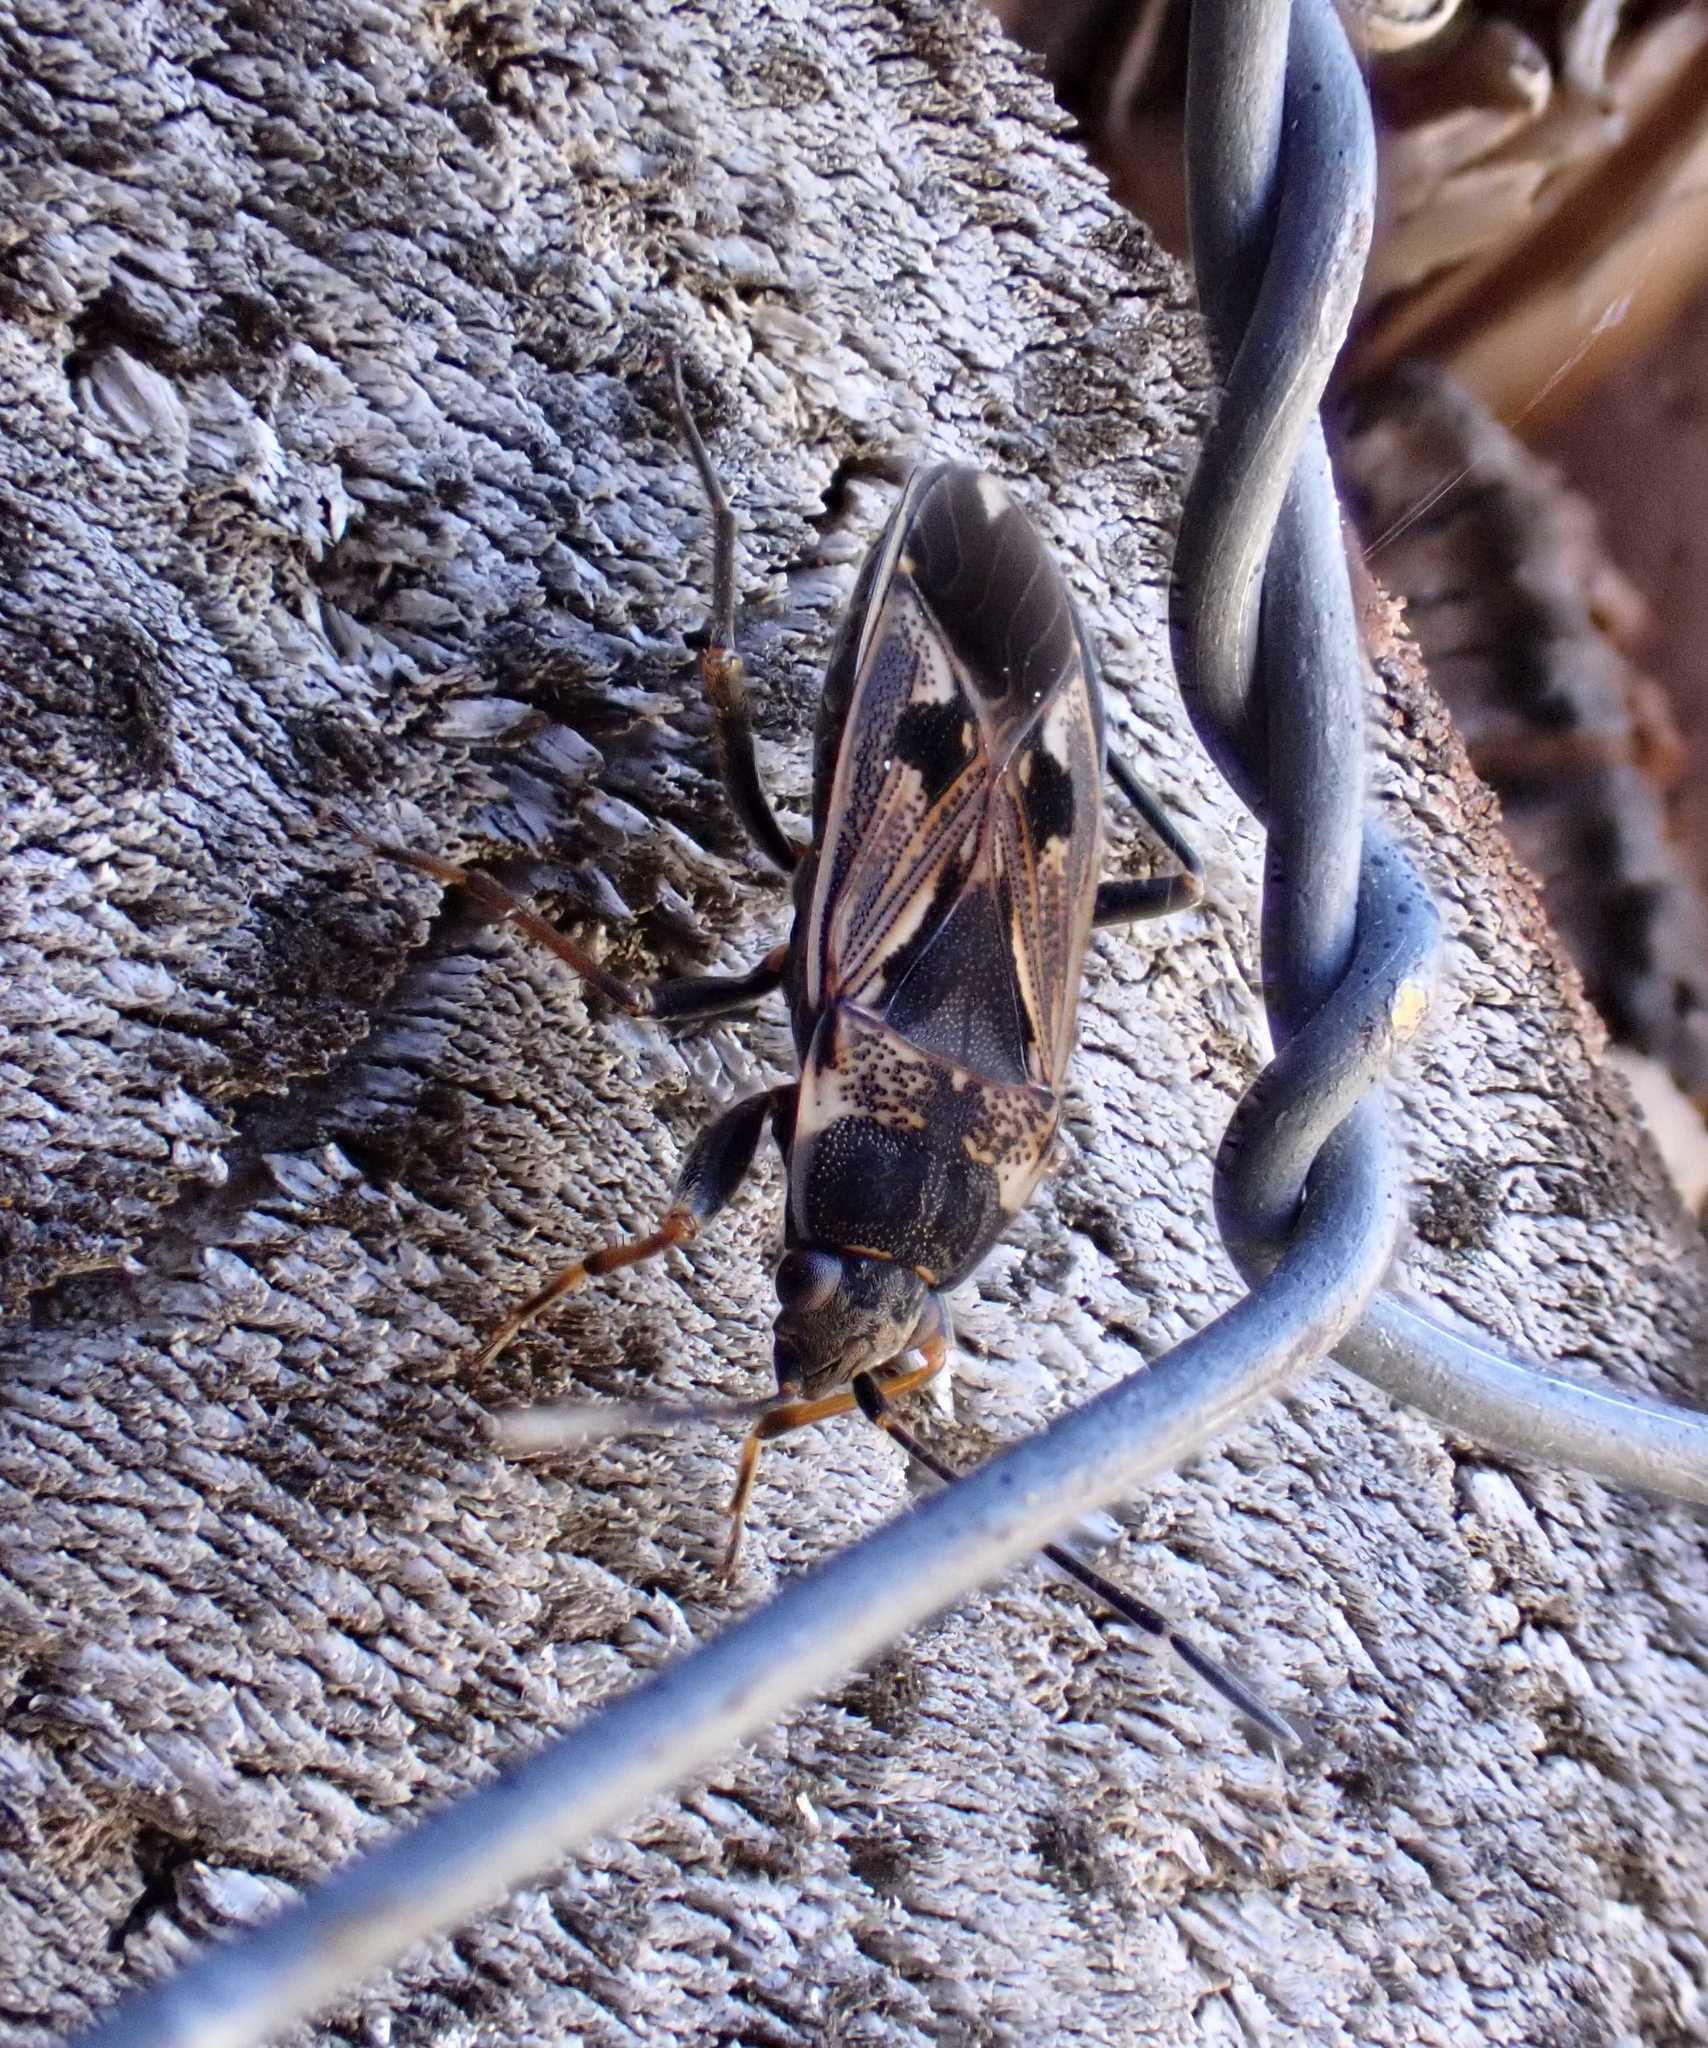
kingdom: Animalia
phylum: Arthropoda
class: Insecta
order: Hemiptera
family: Rhyparochromidae
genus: Rhyparochromus
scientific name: Rhyparochromus vulgaris
